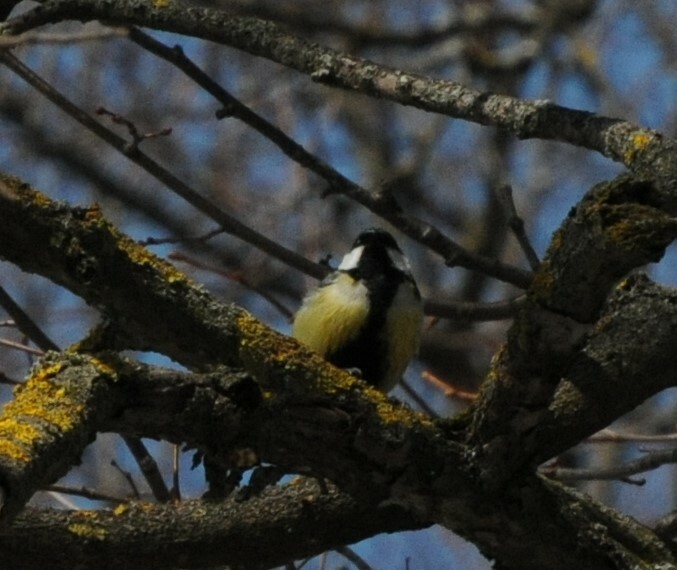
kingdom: Animalia
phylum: Chordata
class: Aves
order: Passeriformes
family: Paridae
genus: Parus
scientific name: Parus major
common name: Great tit
